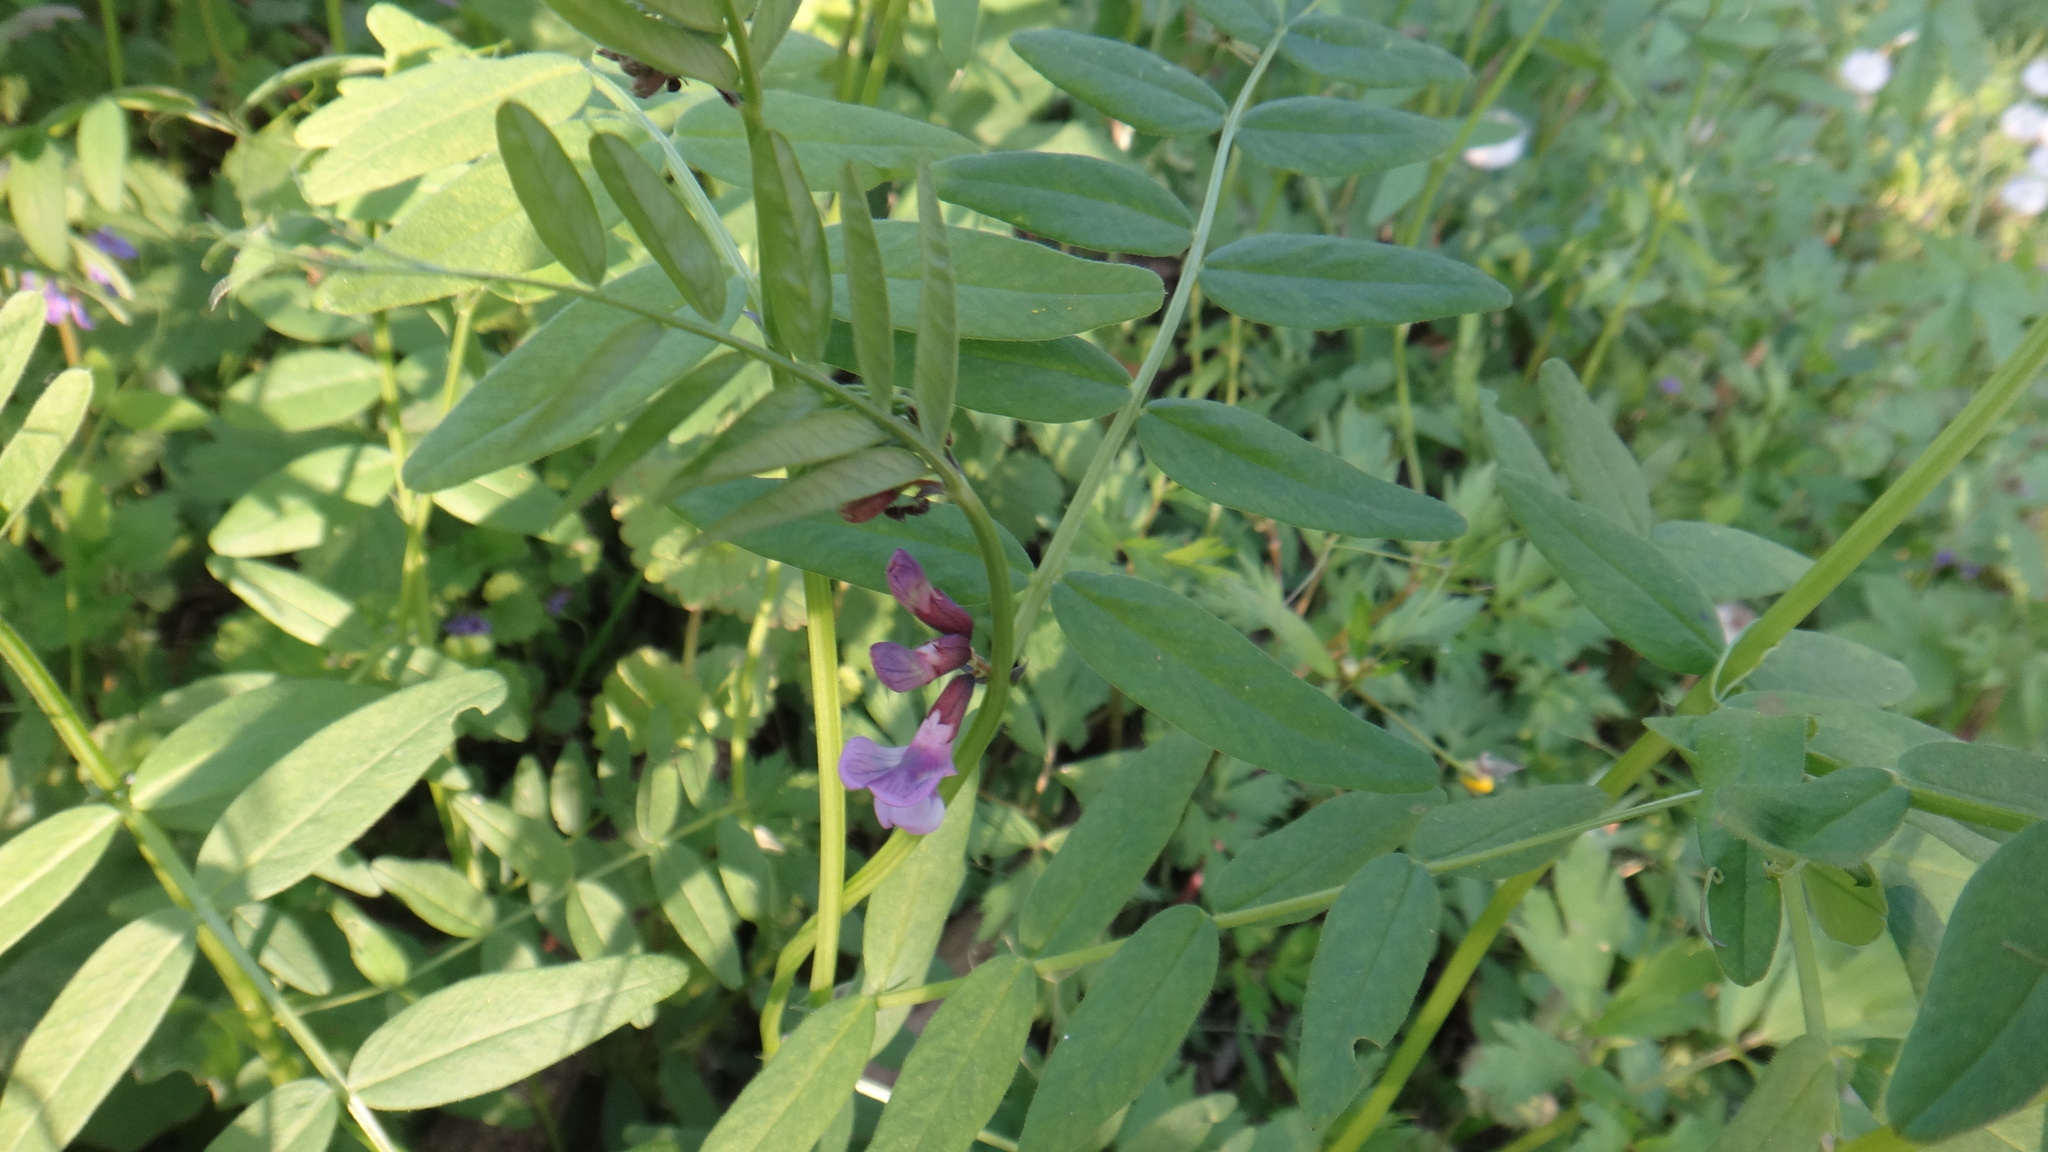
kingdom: Plantae
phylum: Tracheophyta
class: Magnoliopsida
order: Fabales
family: Fabaceae
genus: Vicia
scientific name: Vicia sepium
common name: Bush vetch
